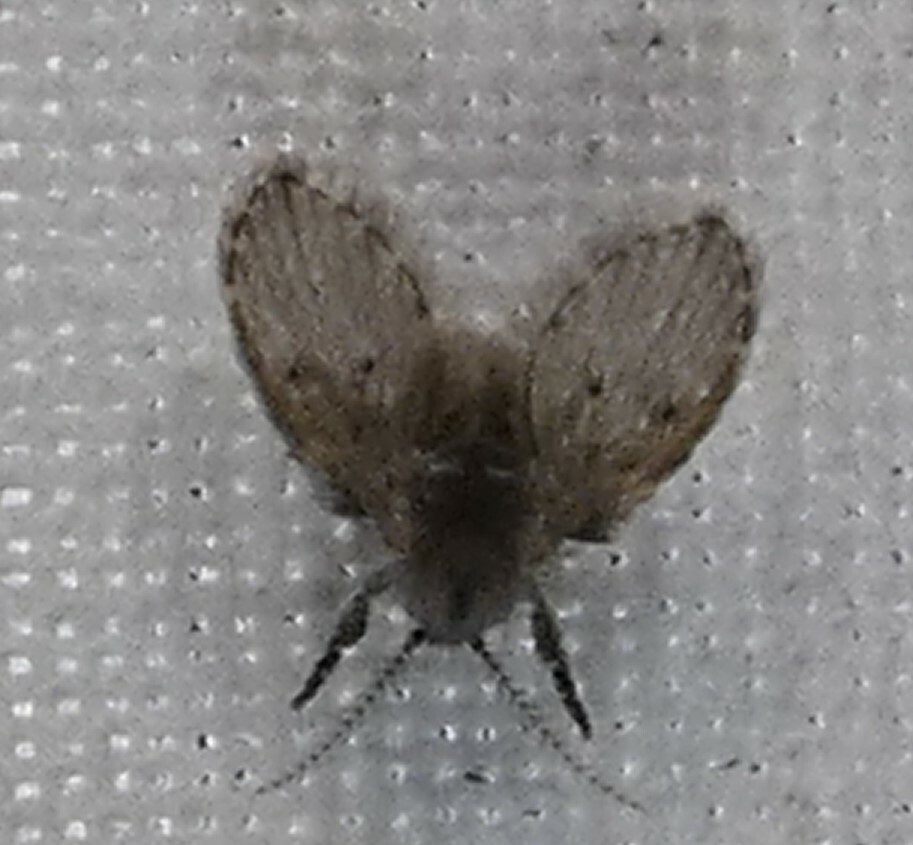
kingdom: Animalia
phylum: Arthropoda
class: Insecta
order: Diptera
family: Psychodidae
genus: Clogmia
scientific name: Clogmia albipunctatus
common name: White-spotted moth fly
